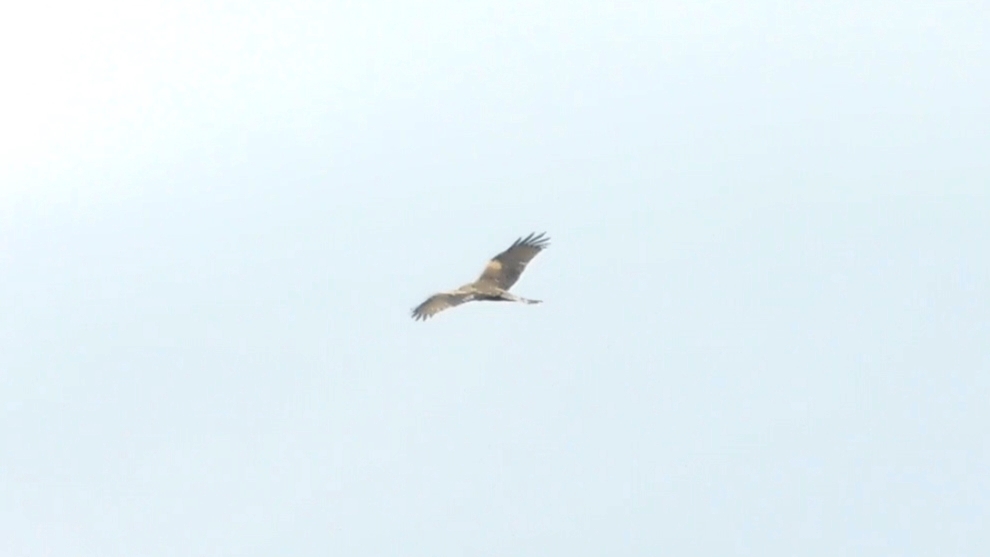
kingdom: Animalia
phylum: Chordata
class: Aves
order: Accipitriformes
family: Accipitridae
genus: Milvus
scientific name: Milvus migrans
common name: Black kite
